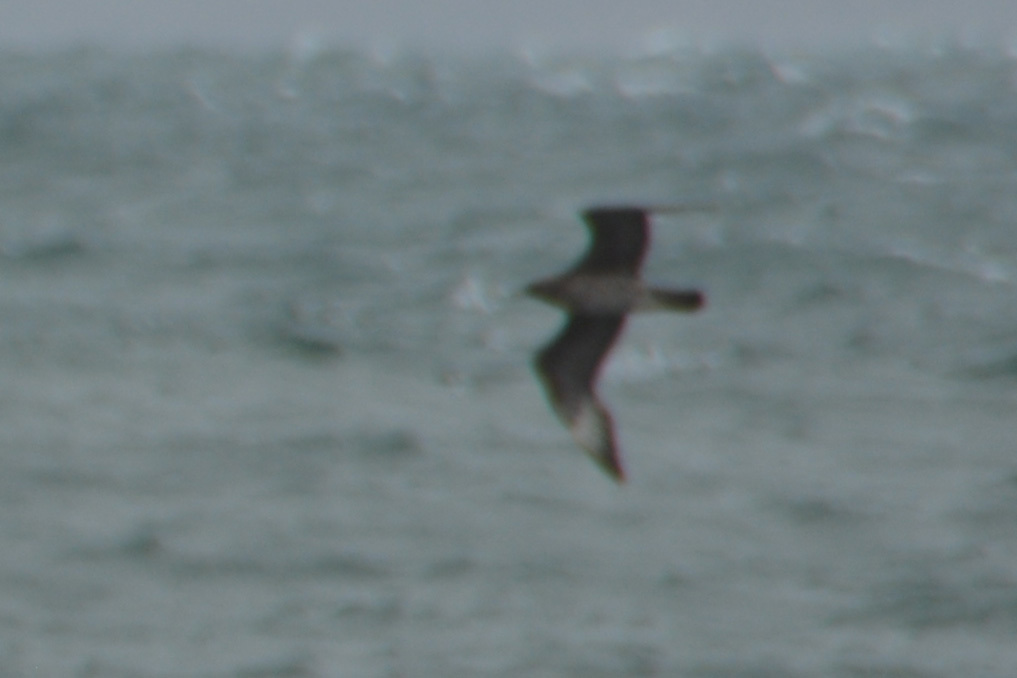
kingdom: Animalia
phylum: Chordata
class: Aves
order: Charadriiformes
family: Stercorariidae
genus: Stercorarius
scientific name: Stercorarius parasiticus
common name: Parasitic jaeger
